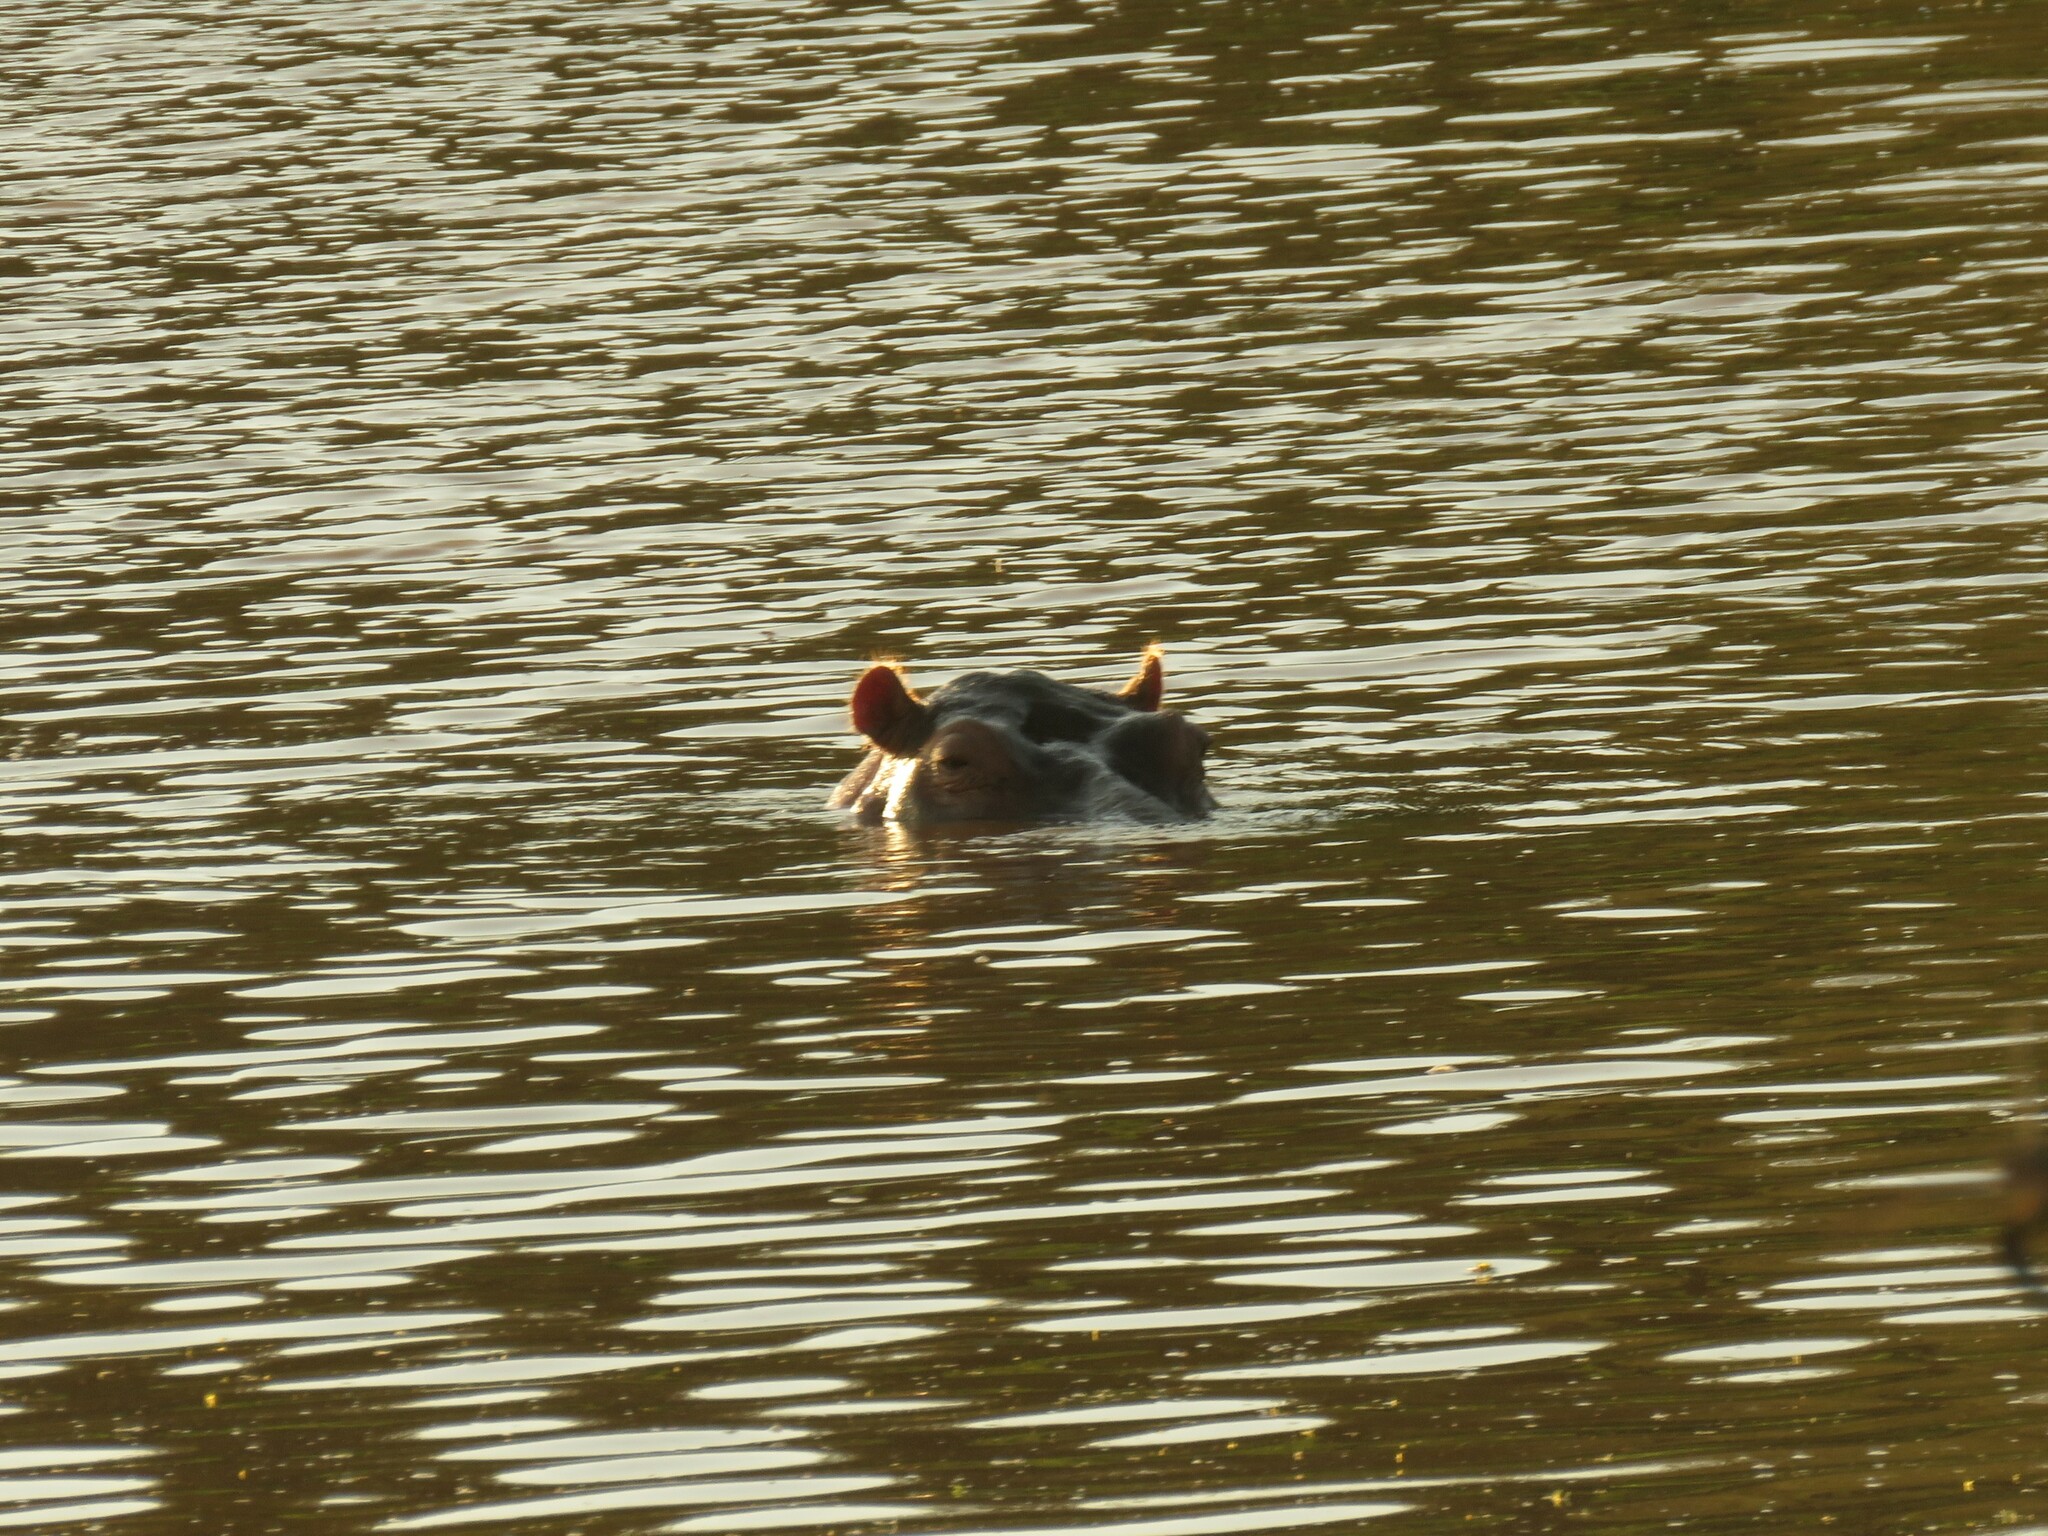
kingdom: Animalia
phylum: Chordata
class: Mammalia
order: Artiodactyla
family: Hippopotamidae
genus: Hippopotamus
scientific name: Hippopotamus amphibius
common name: Common hippopotamus
